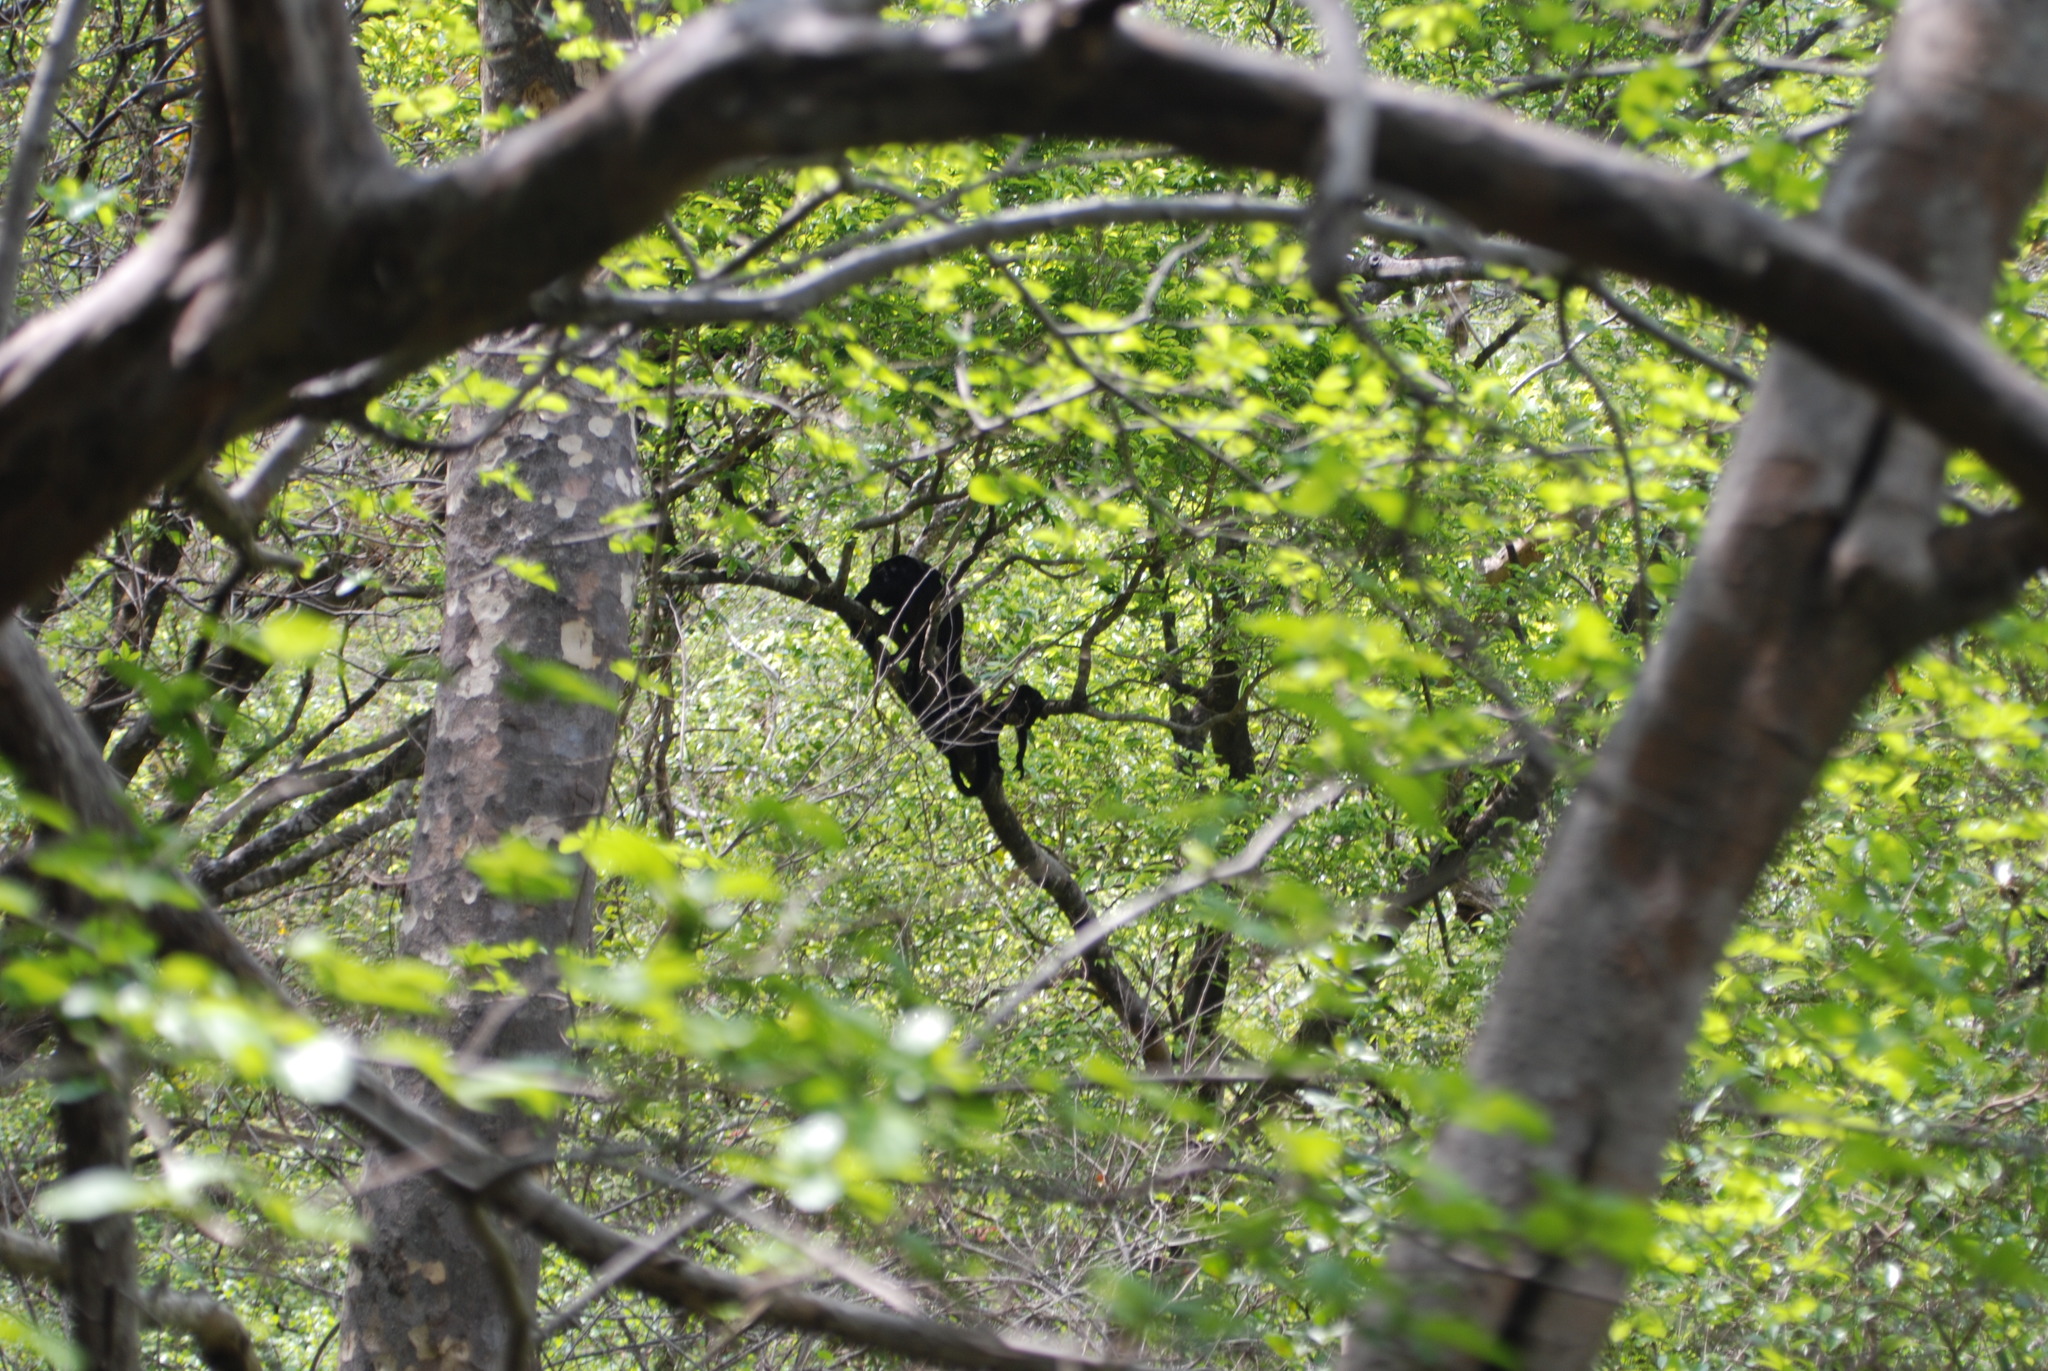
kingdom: Animalia
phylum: Chordata
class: Mammalia
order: Primates
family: Atelidae
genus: Alouatta
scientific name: Alouatta palliata
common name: Mantled howler
